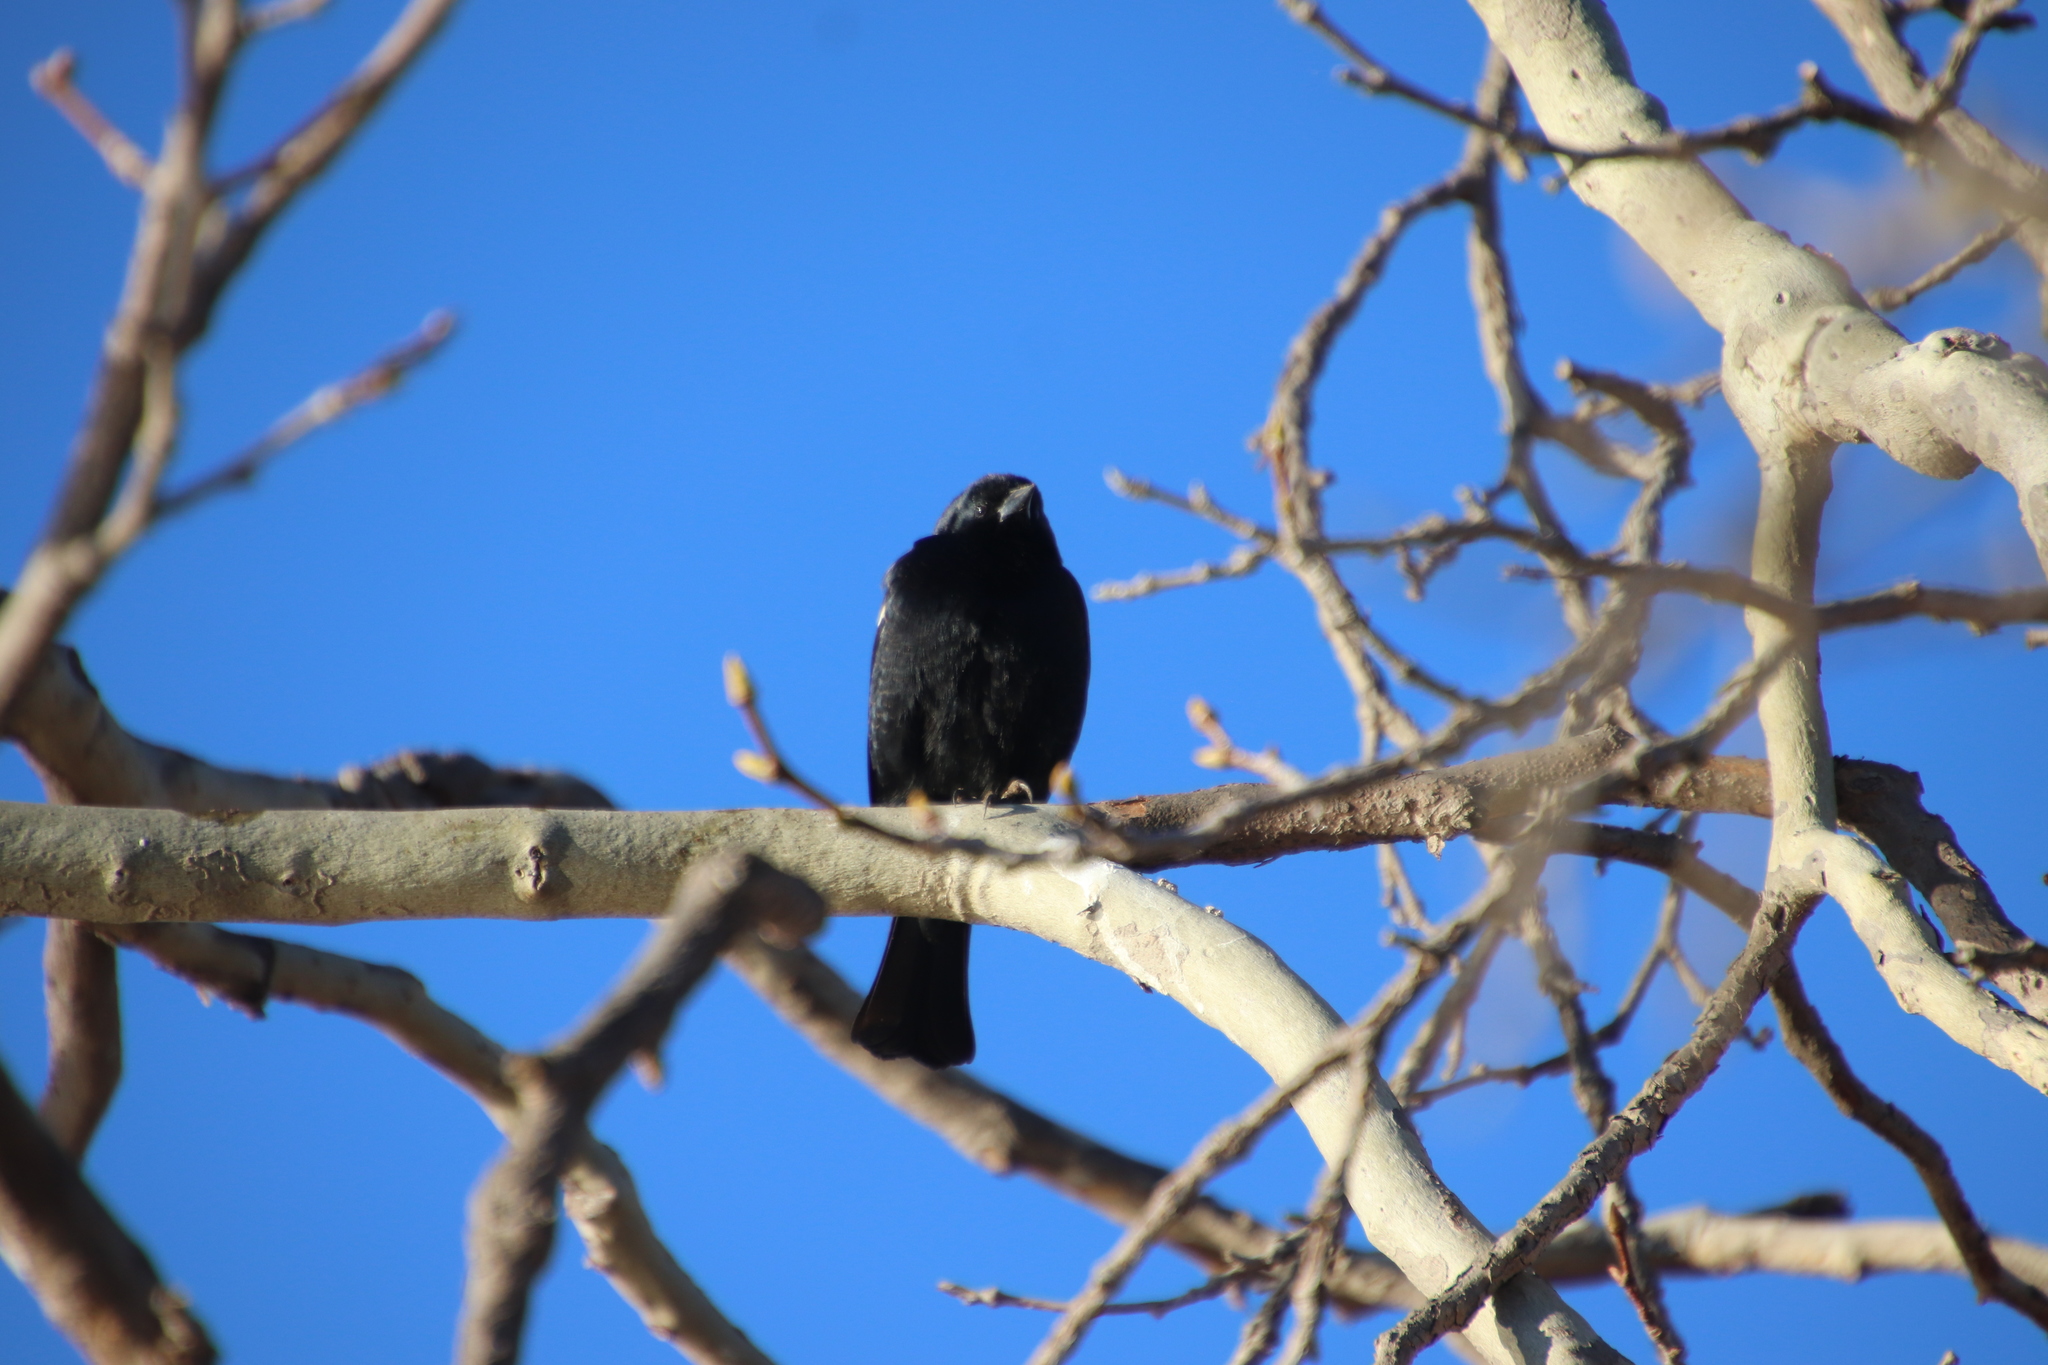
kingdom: Animalia
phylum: Chordata
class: Aves
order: Passeriformes
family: Icteridae
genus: Agelaius
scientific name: Agelaius tricolor
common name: Tricolored blackbird
